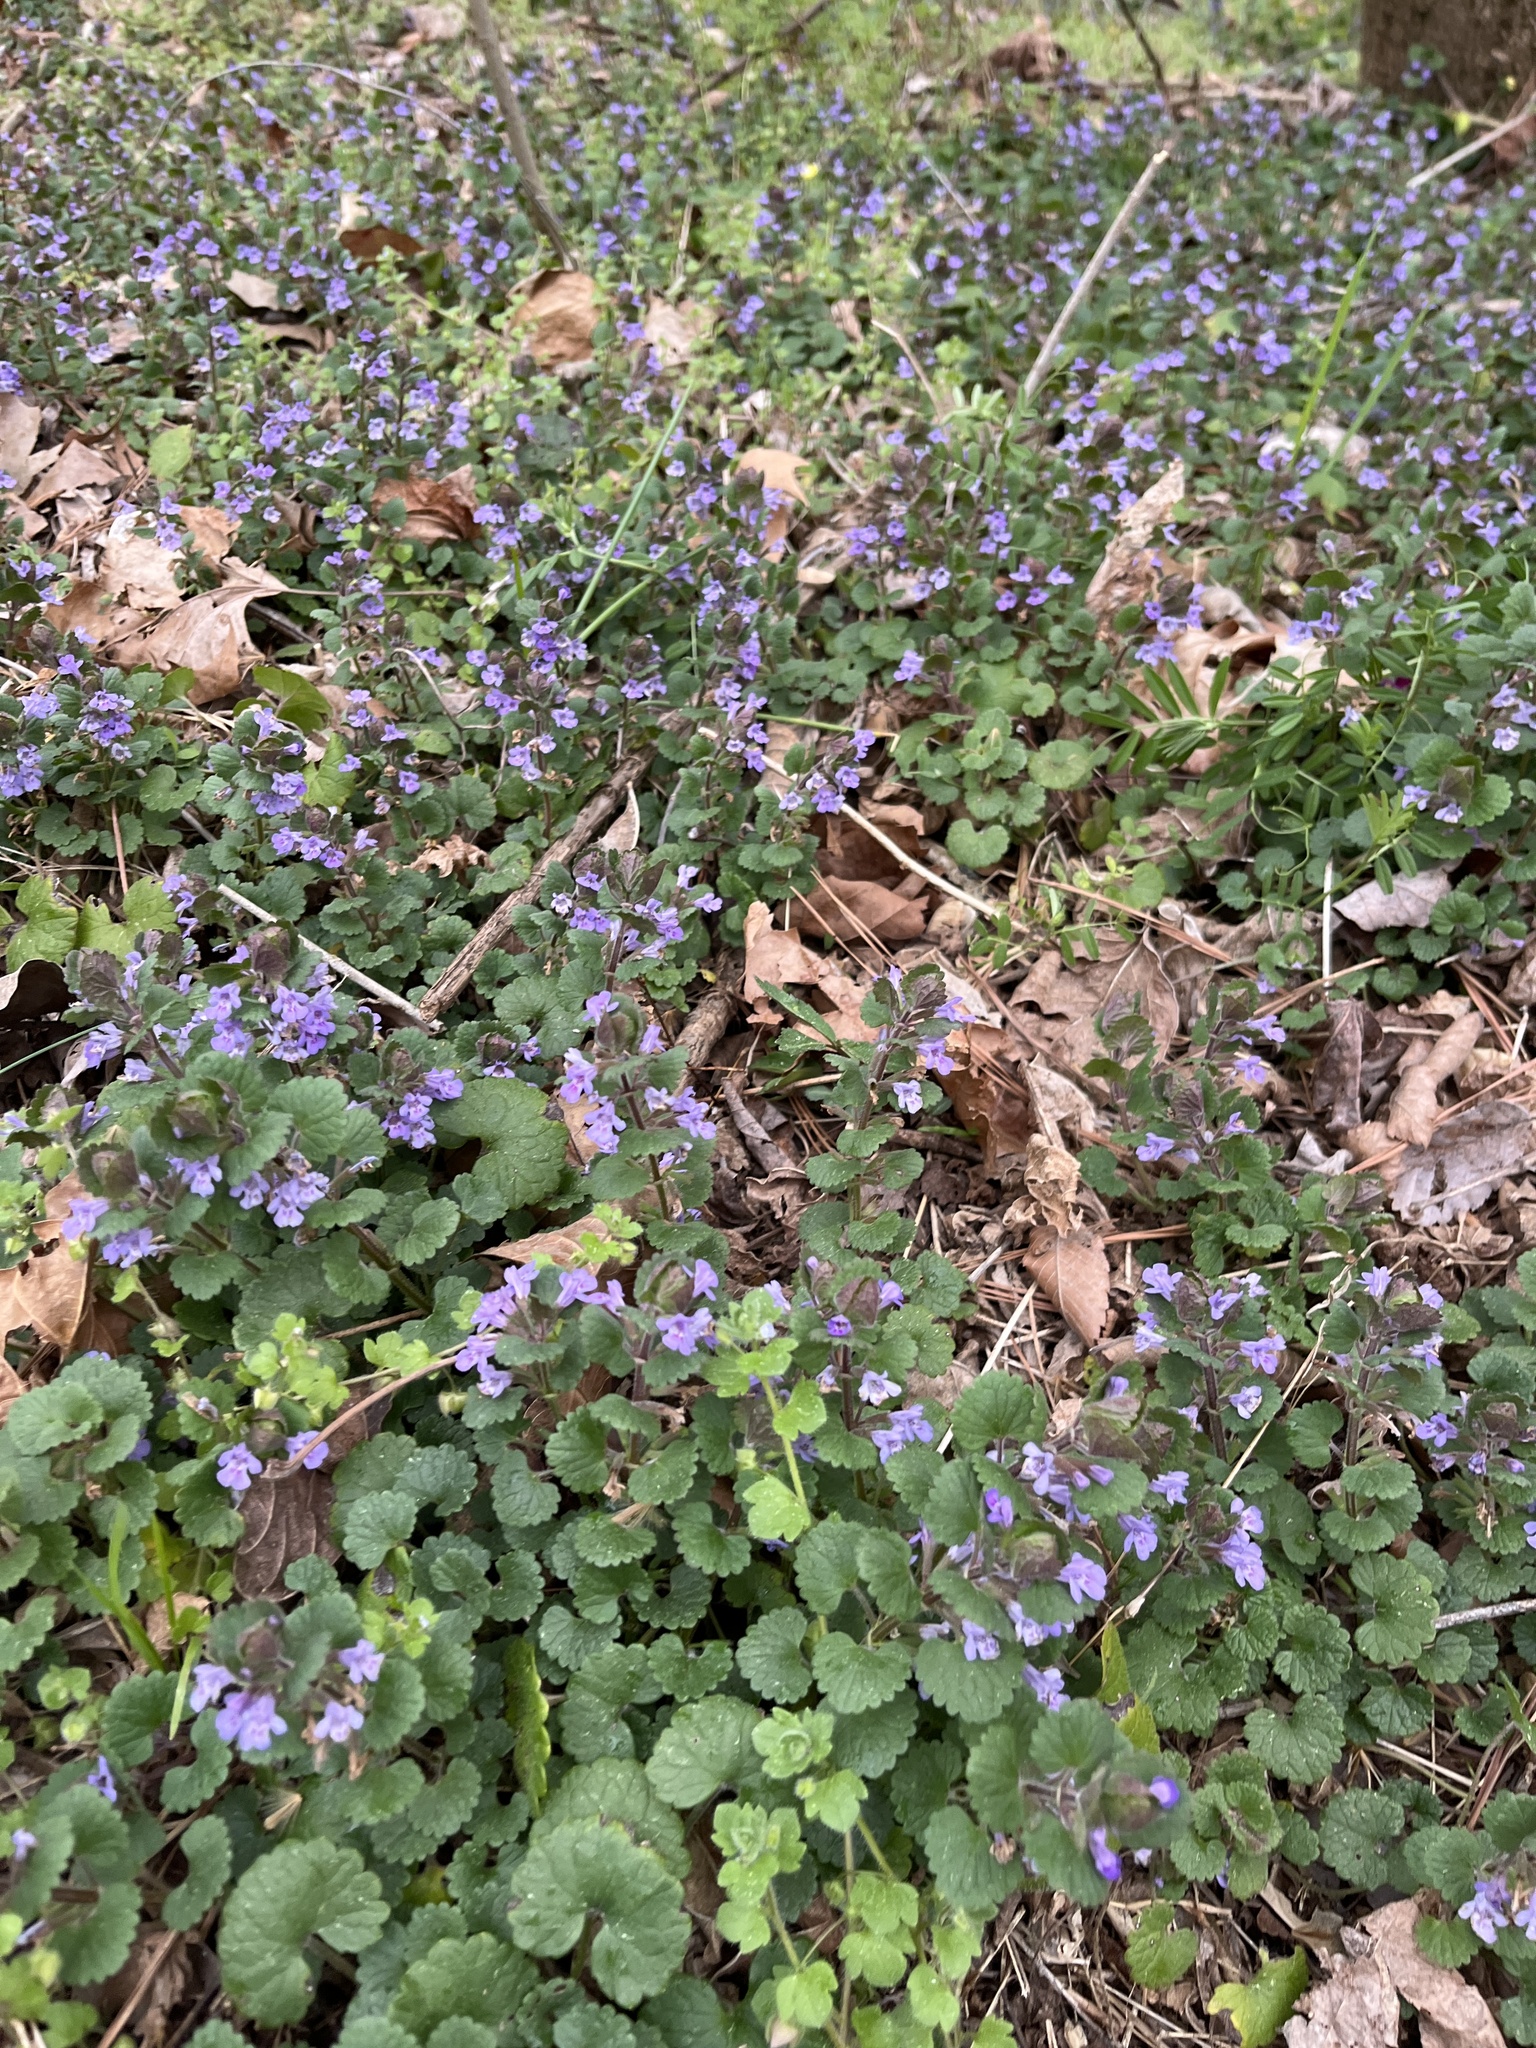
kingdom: Plantae
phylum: Tracheophyta
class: Magnoliopsida
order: Lamiales
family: Lamiaceae
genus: Glechoma
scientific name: Glechoma hederacea
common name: Ground ivy
